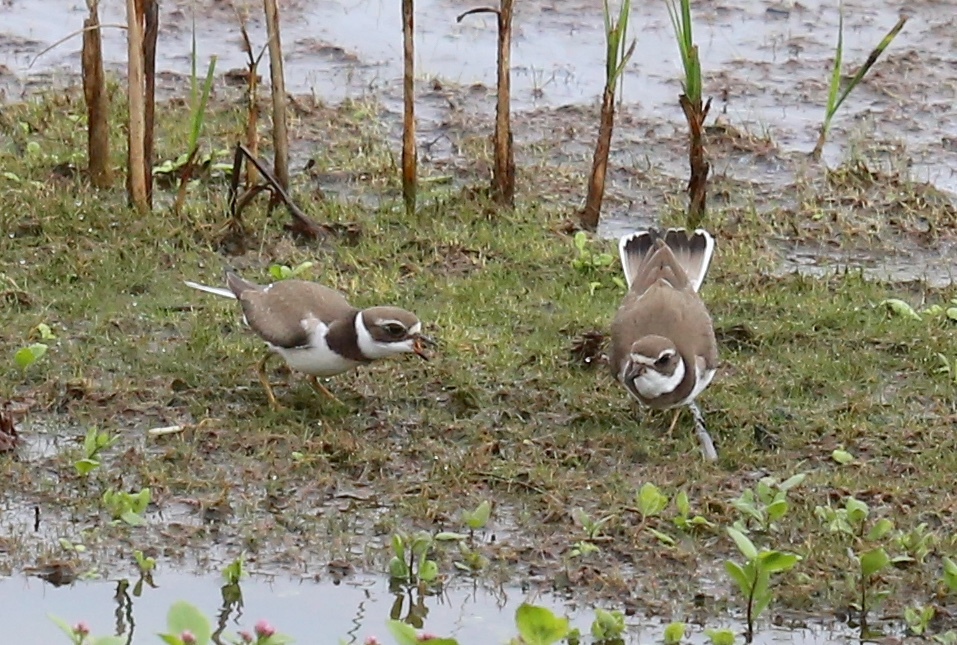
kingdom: Animalia
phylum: Chordata
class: Aves
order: Charadriiformes
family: Charadriidae
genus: Charadrius
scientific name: Charadrius semipalmatus
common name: Semipalmated plover
